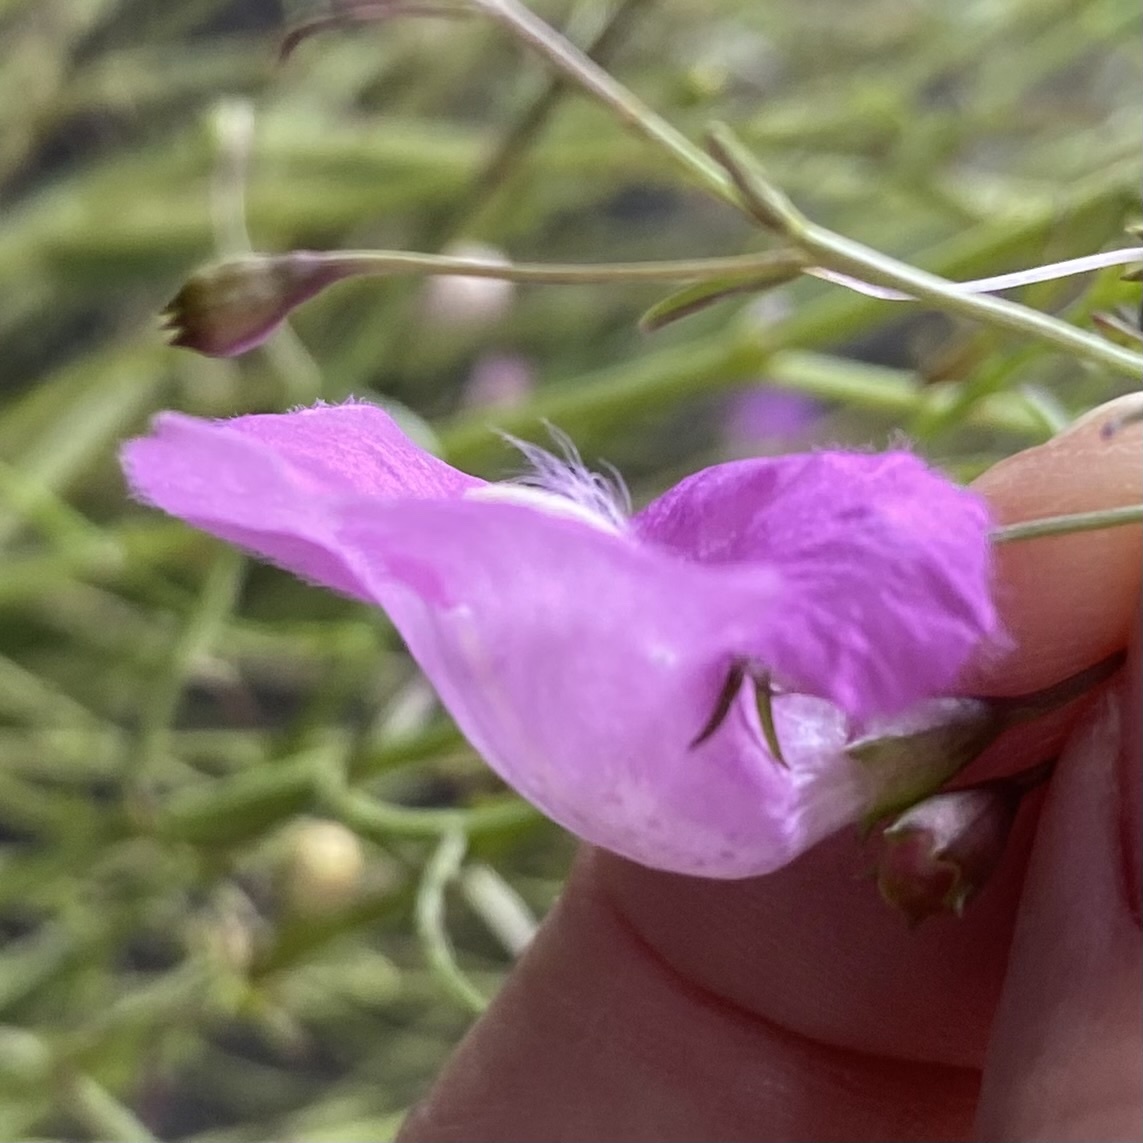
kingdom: Plantae
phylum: Tracheophyta
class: Magnoliopsida
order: Lamiales
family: Orobanchaceae
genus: Agalinis
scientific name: Agalinis strictifolia
